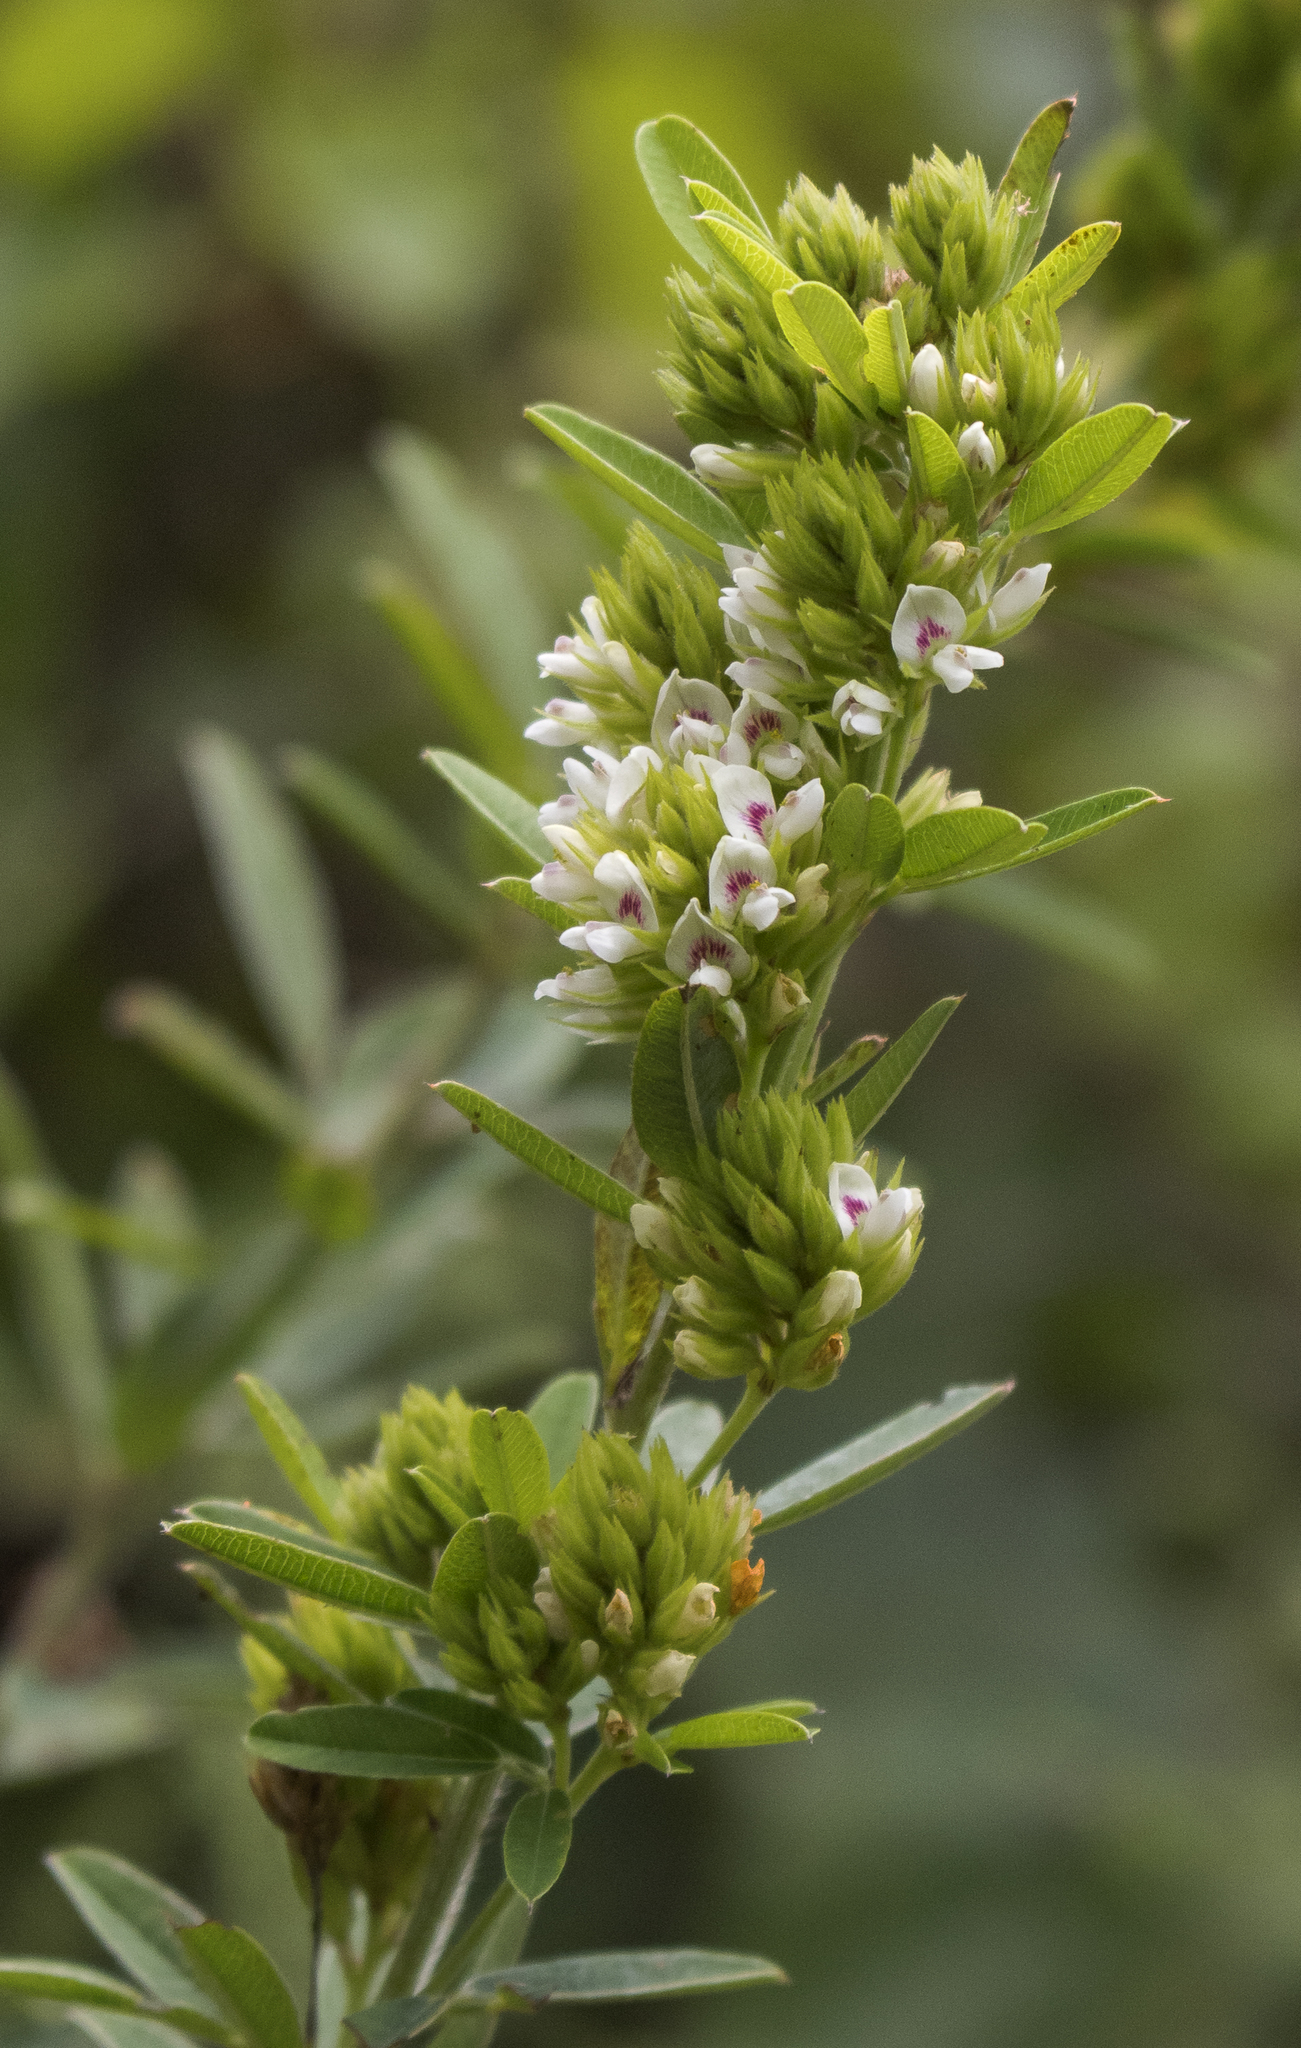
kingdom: Plantae
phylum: Tracheophyta
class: Magnoliopsida
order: Fabales
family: Fabaceae
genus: Lespedeza
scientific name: Lespedeza capitata
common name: Dusty clover
